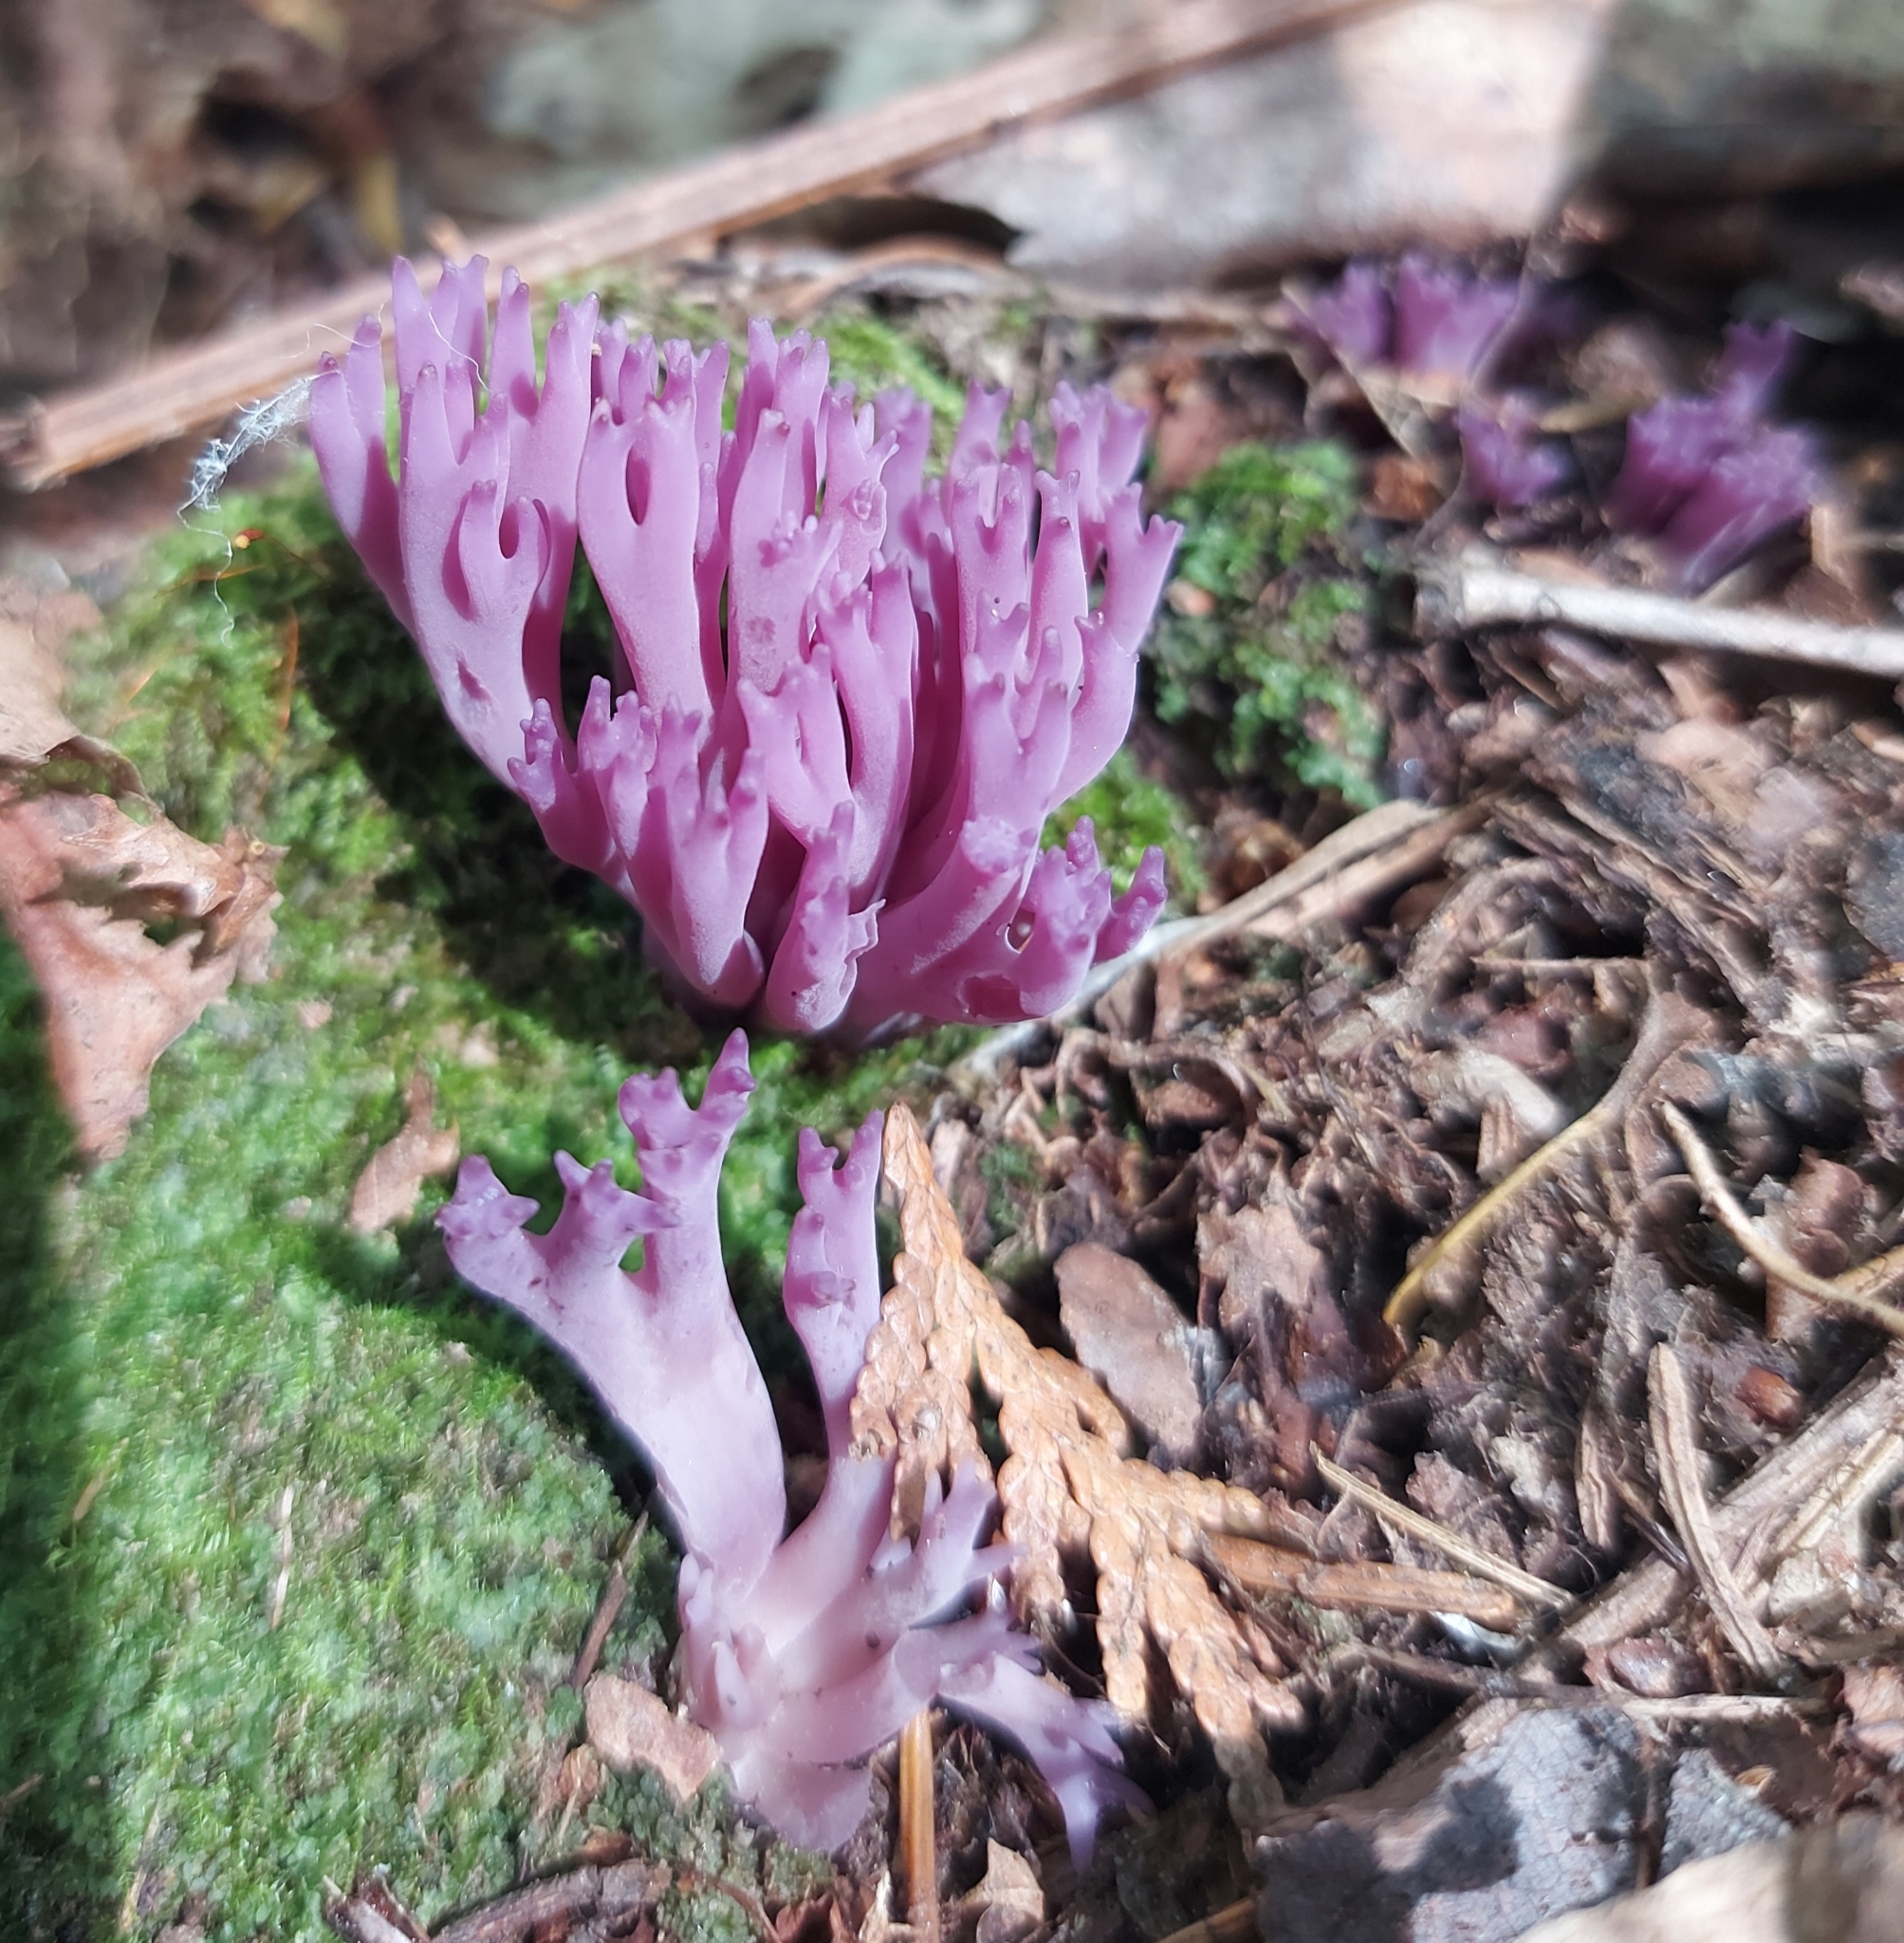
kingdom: Fungi
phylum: Basidiomycota
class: Agaricomycetes
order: Agaricales
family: Clavariaceae
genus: Clavaria
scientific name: Clavaria zollingeri
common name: Violet coral
